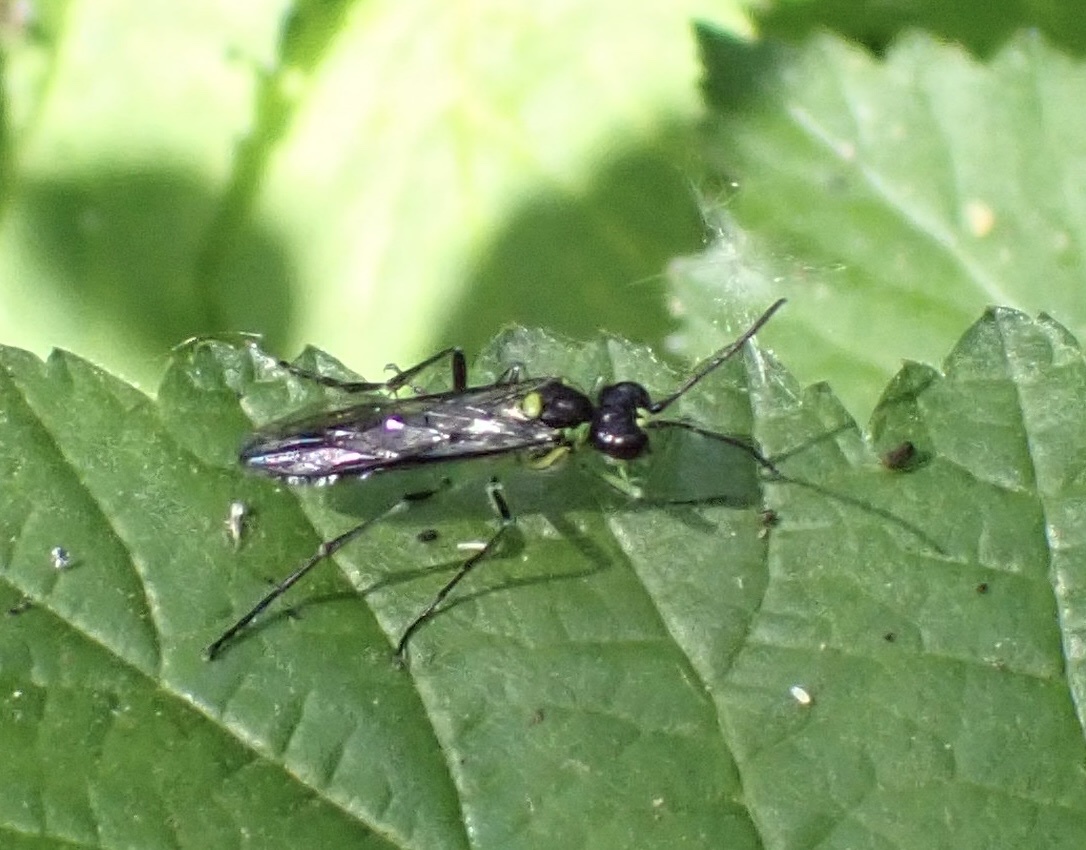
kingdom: Animalia
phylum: Arthropoda
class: Insecta
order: Hymenoptera
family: Tenthredinidae
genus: Tenthredo
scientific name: Tenthredo mesomela
